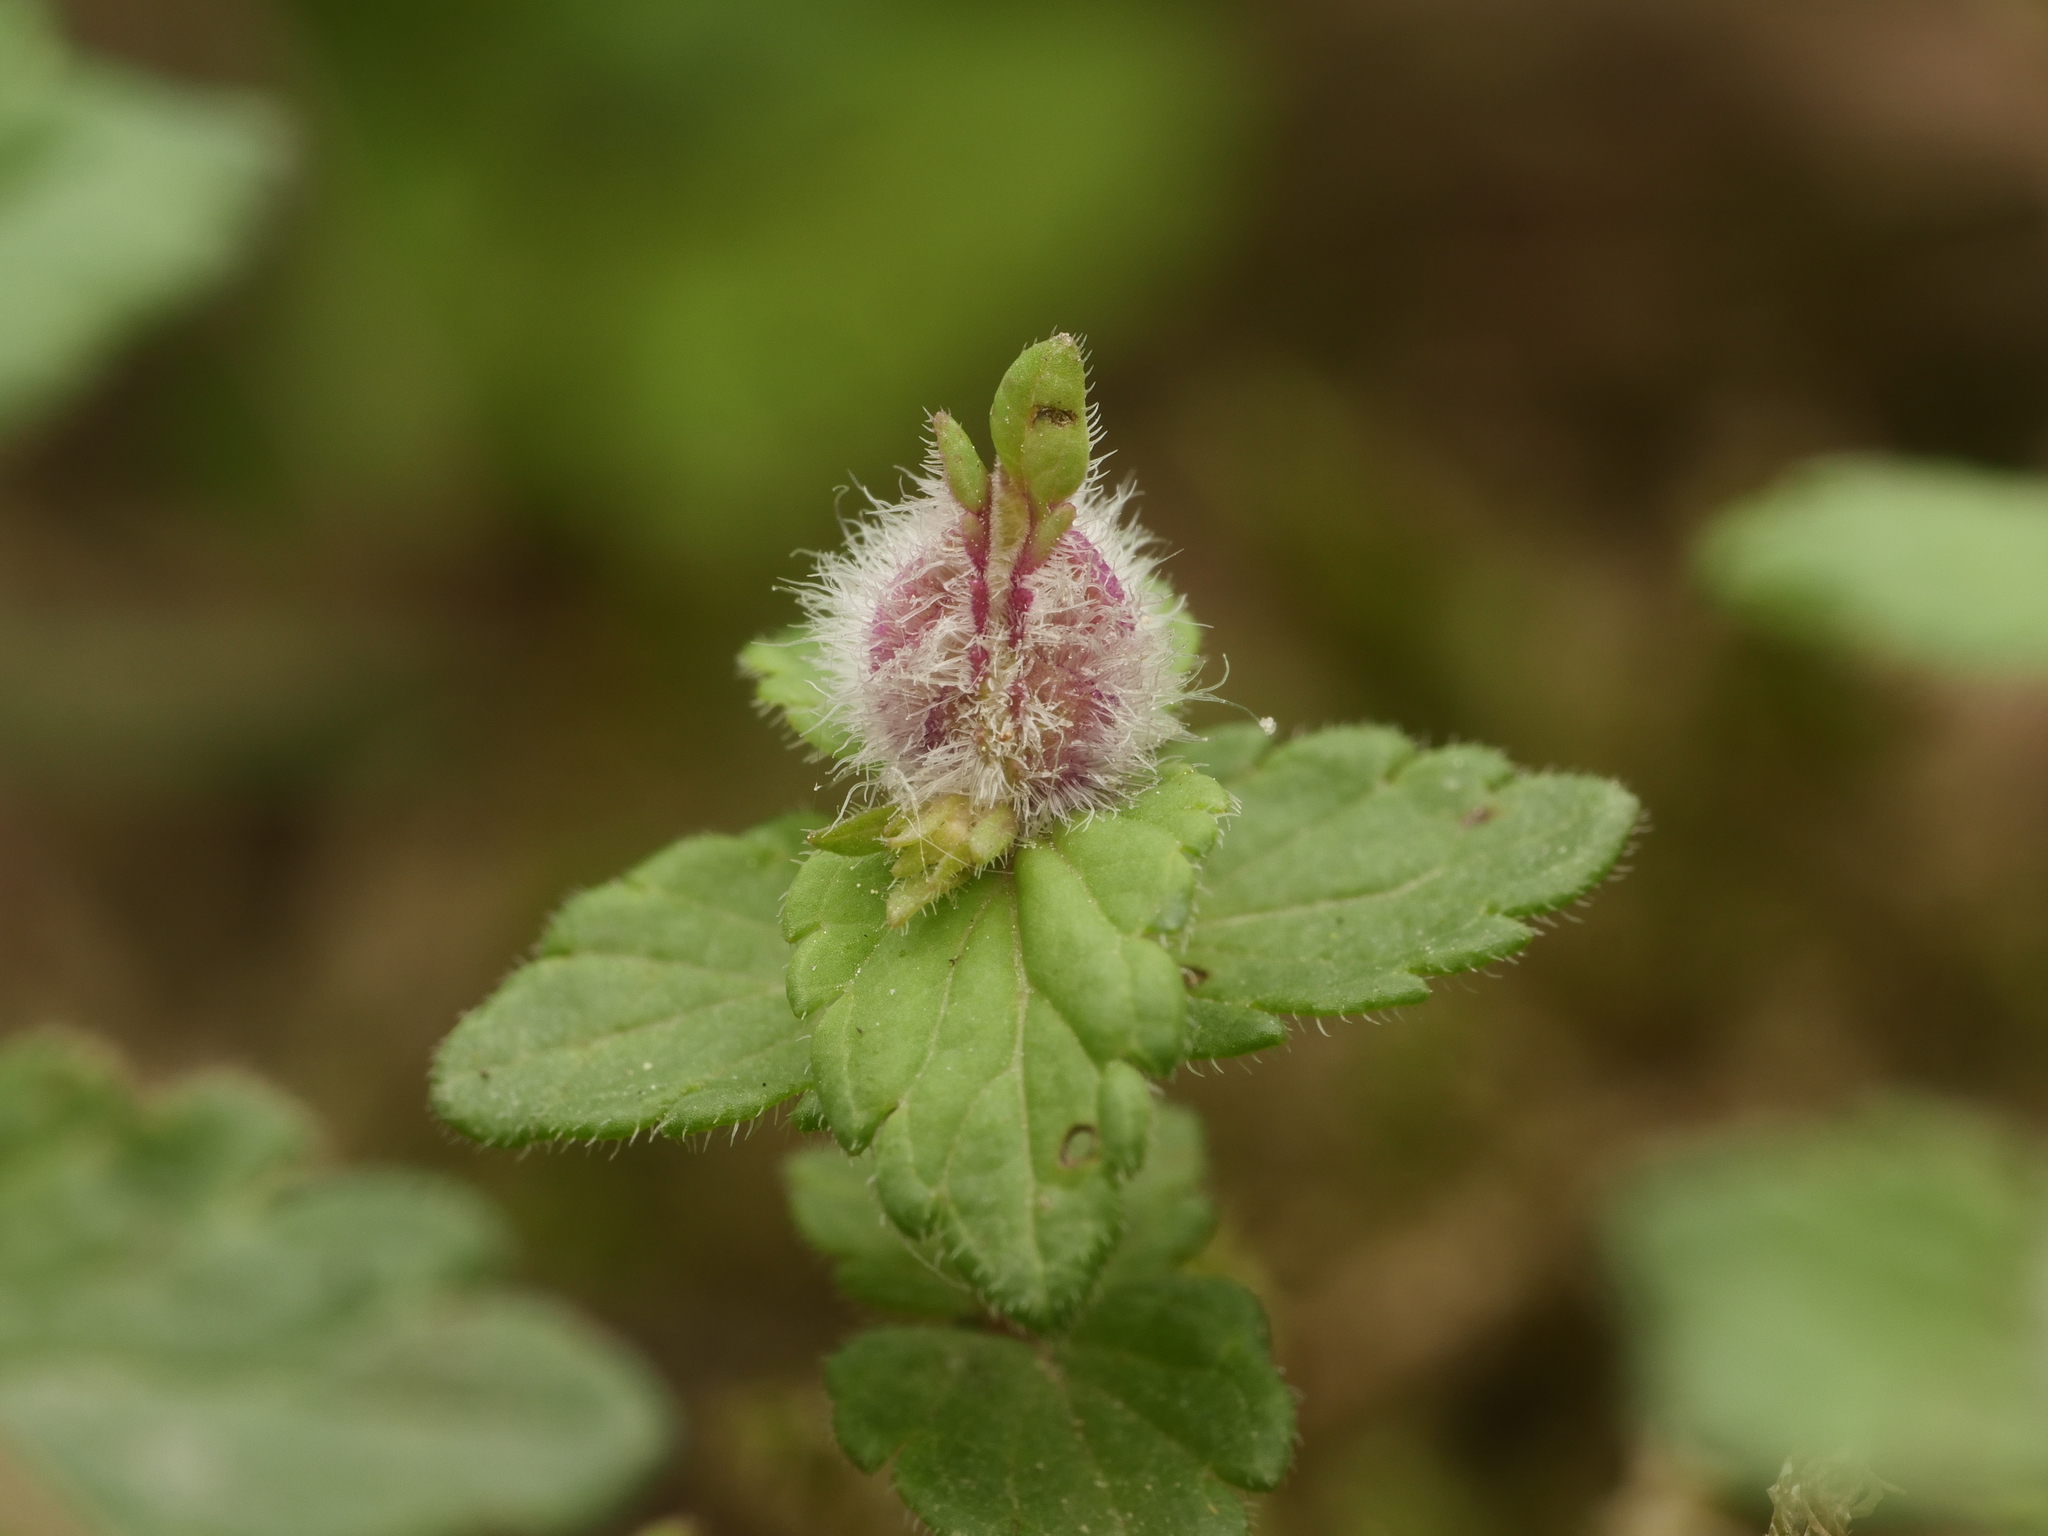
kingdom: Animalia
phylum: Arthropoda
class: Insecta
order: Diptera
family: Cecidomyiidae
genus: Jaapiella
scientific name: Jaapiella veronicae
